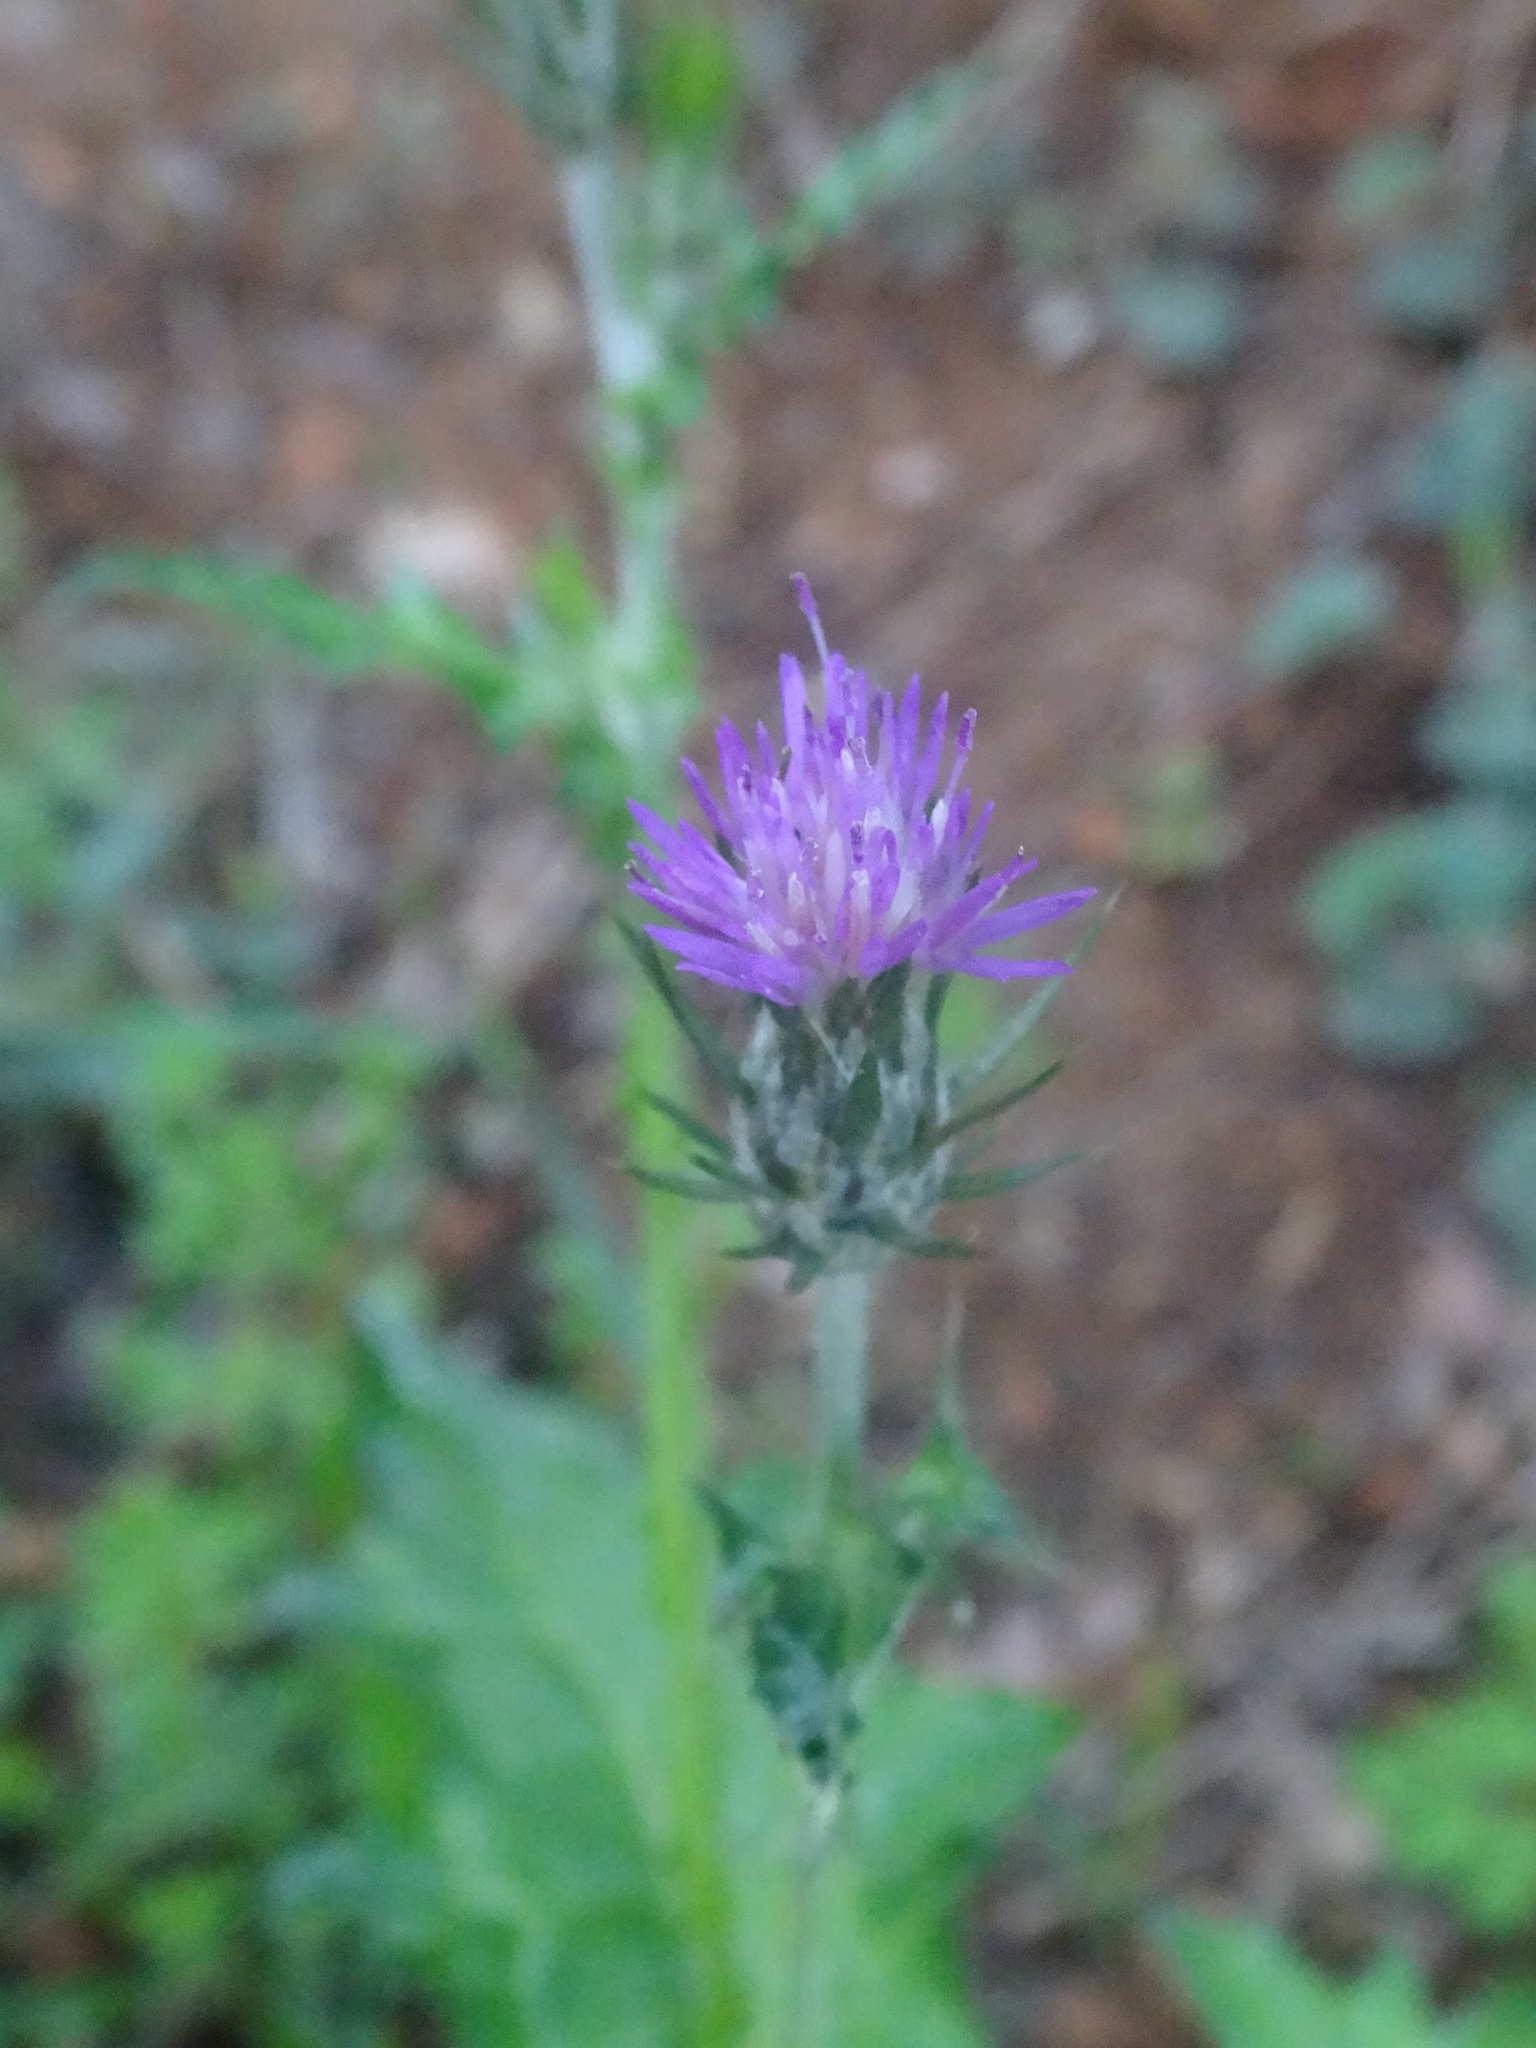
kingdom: Plantae
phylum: Tracheophyta
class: Magnoliopsida
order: Asterales
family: Asteraceae
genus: Carduus
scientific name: Carduus pycnocephalus
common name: Plymouth thistle
